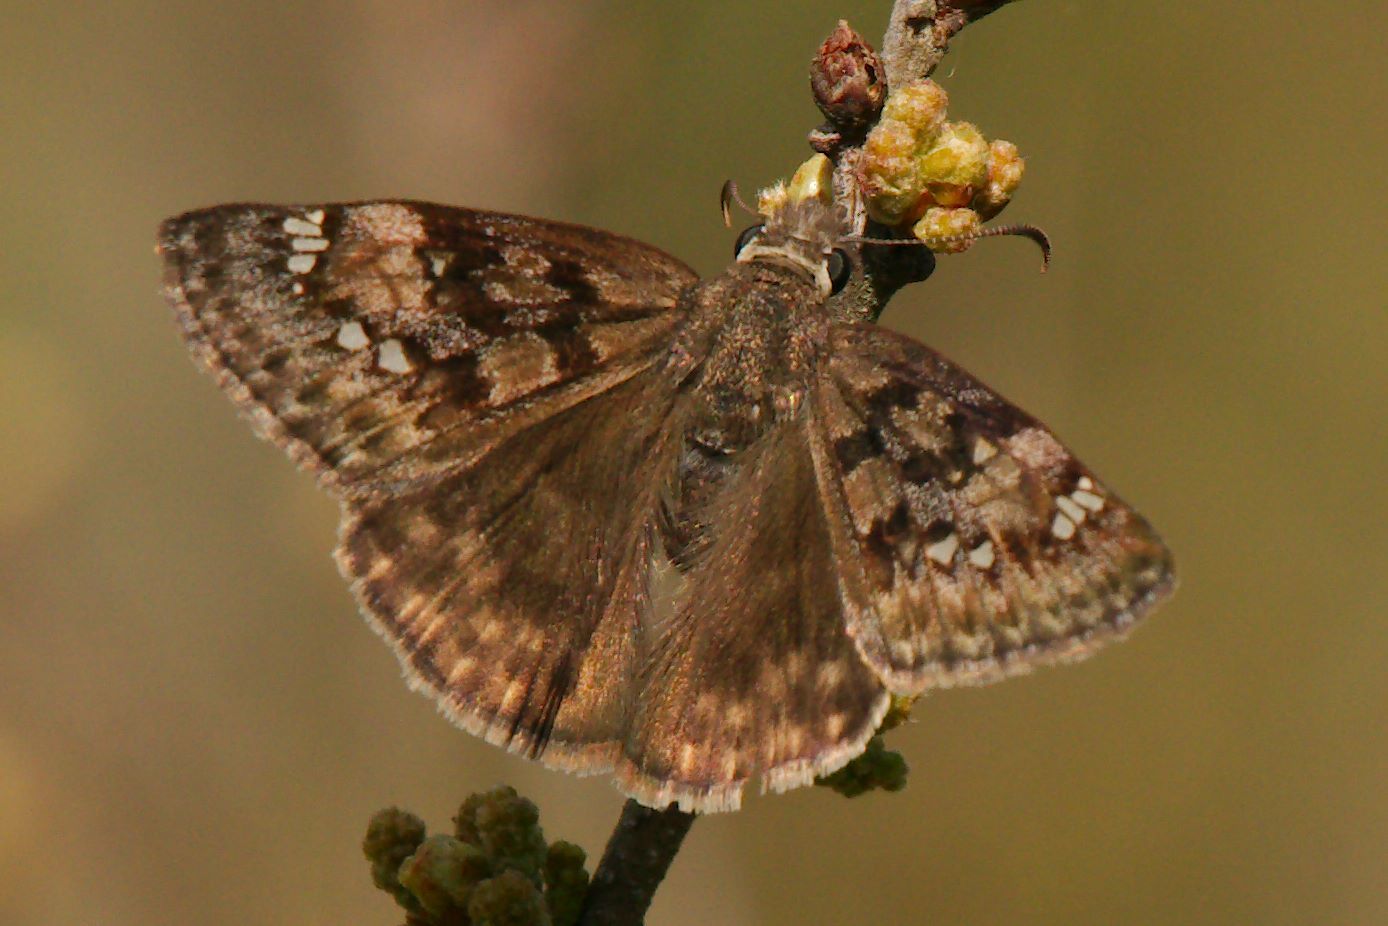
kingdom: Animalia
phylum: Arthropoda
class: Insecta
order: Lepidoptera
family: Hesperiidae
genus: Erynnis
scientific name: Erynnis horatius
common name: Horace's duskywing
